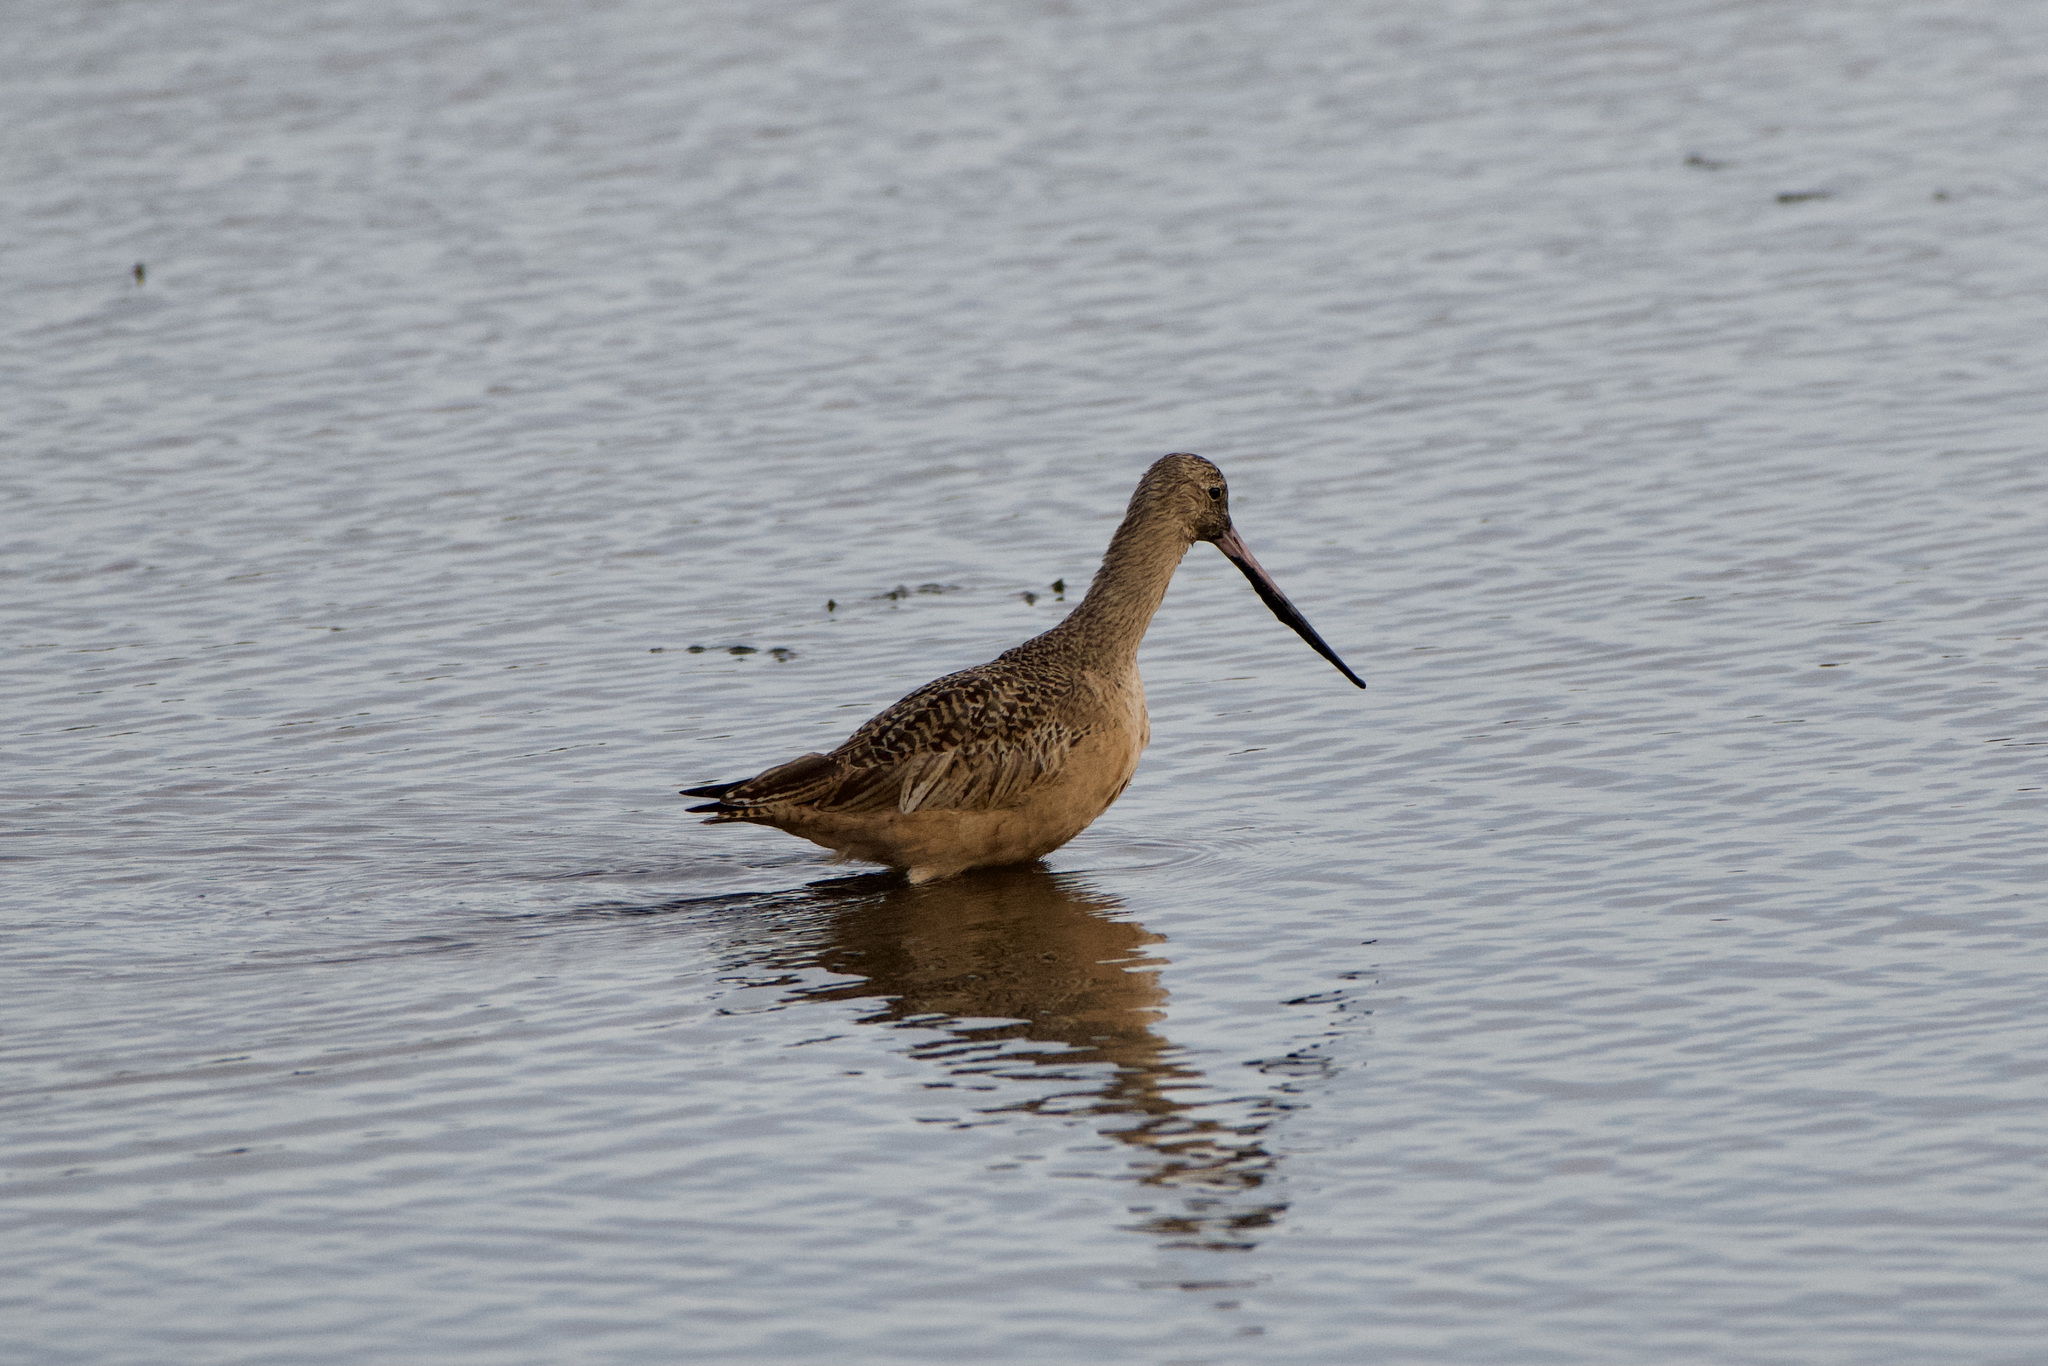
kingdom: Animalia
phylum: Chordata
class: Aves
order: Charadriiformes
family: Scolopacidae
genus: Limosa
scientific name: Limosa fedoa
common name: Marbled godwit
